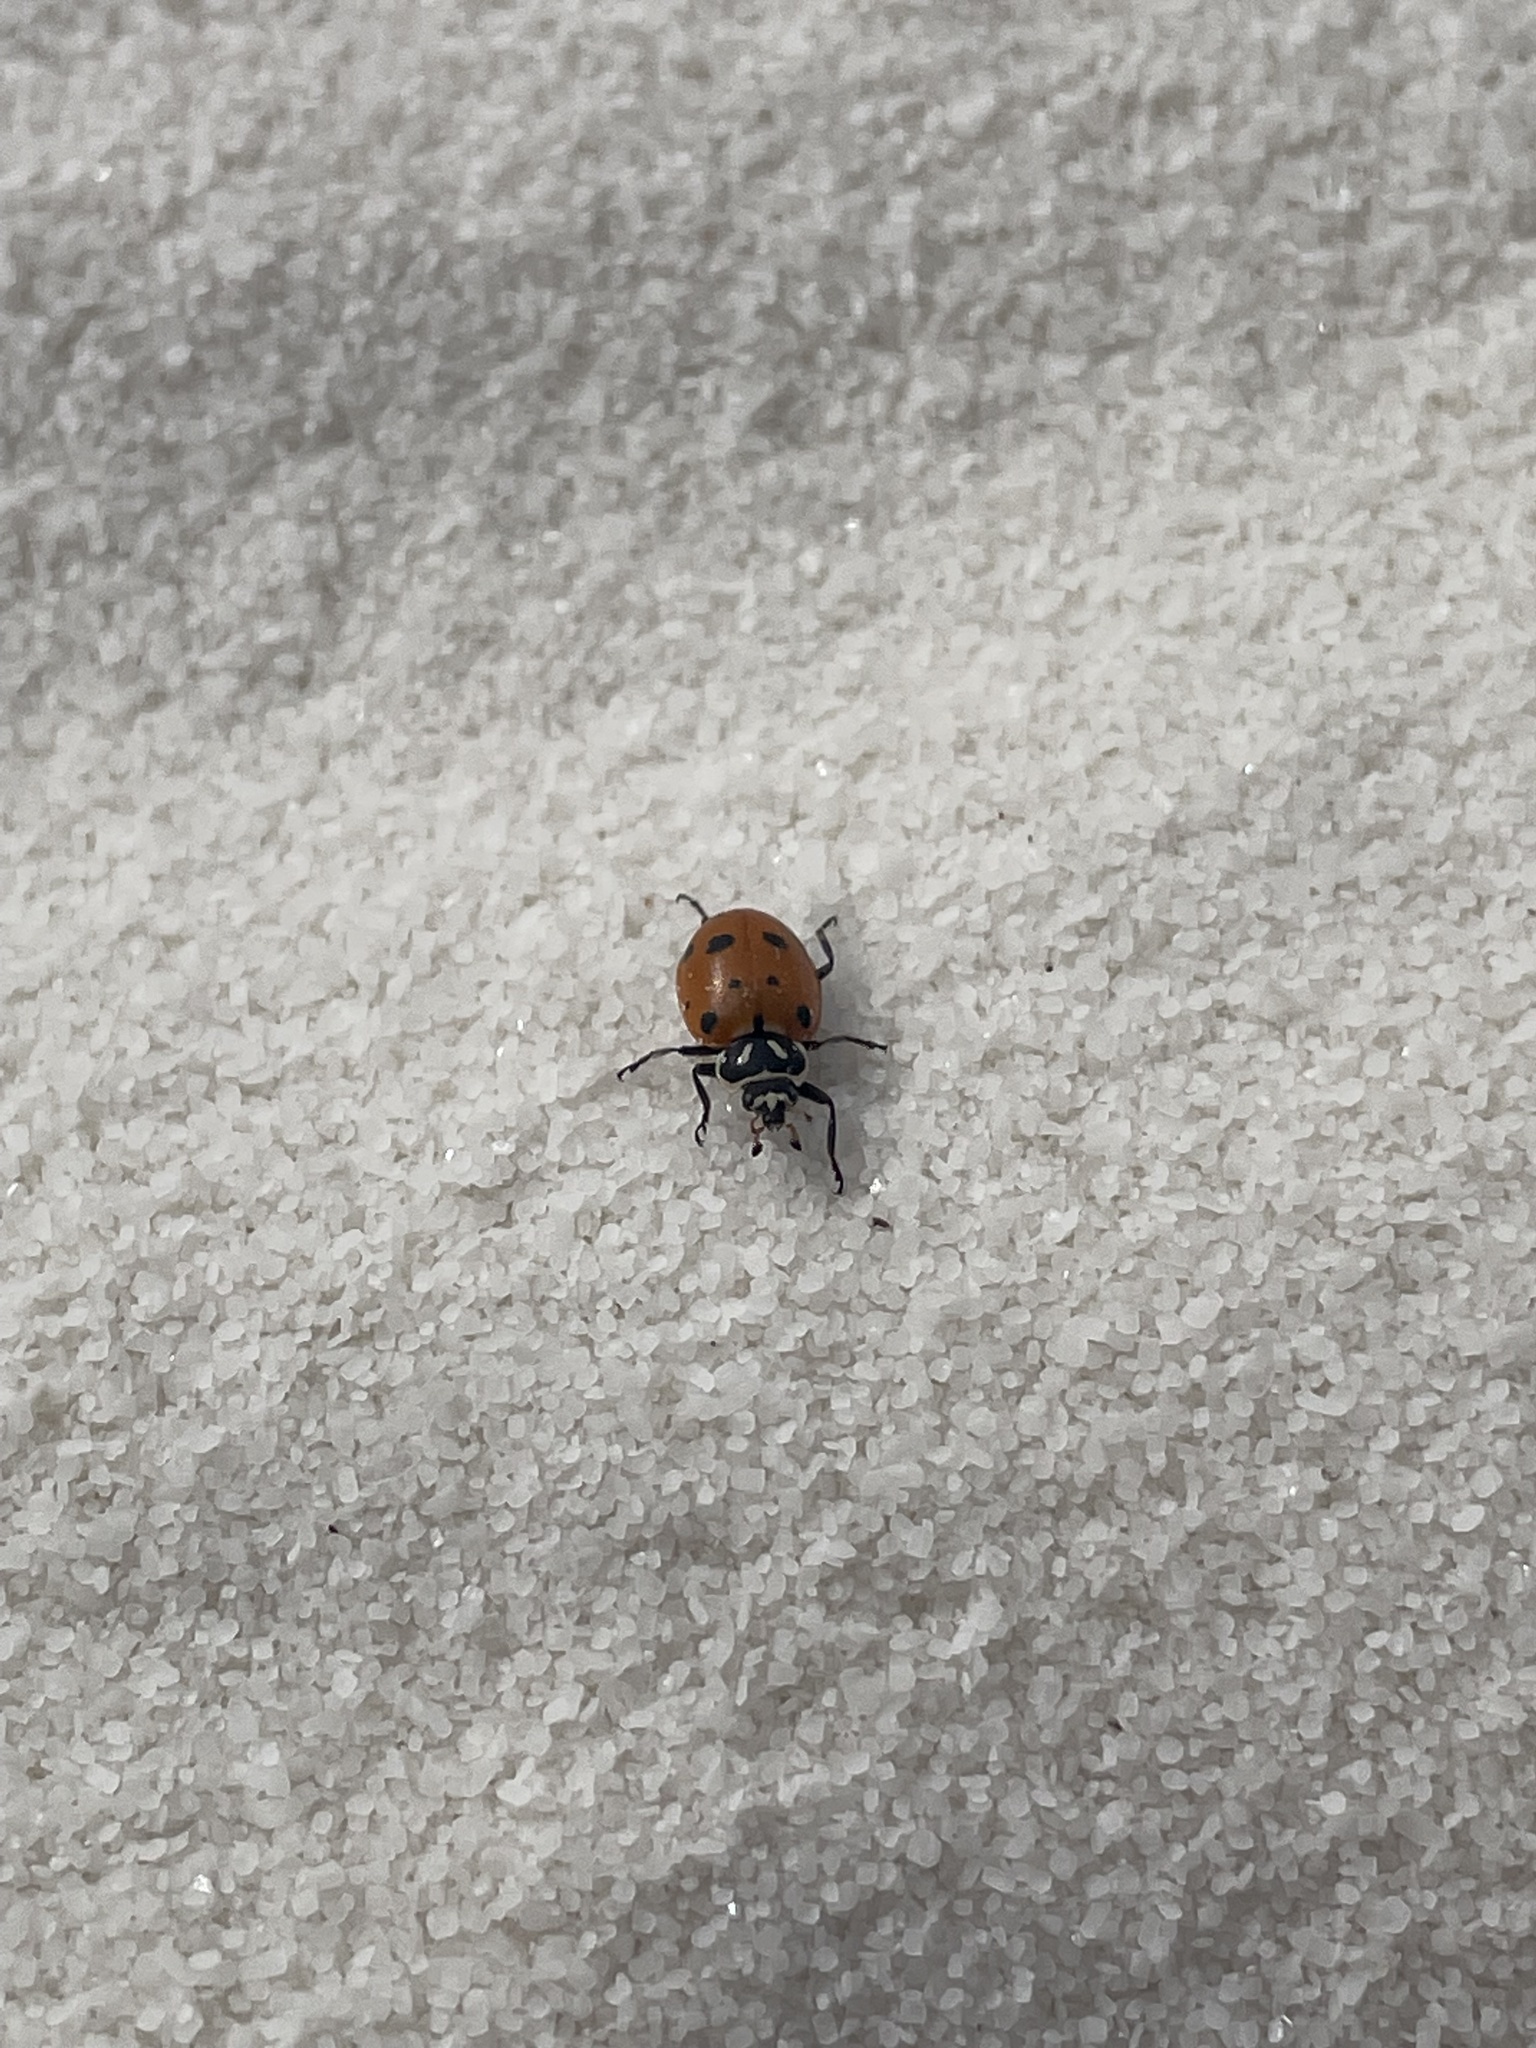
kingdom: Animalia
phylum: Arthropoda
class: Insecta
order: Coleoptera
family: Coccinellidae
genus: Hippodamia
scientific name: Hippodamia convergens
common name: Convergent lady beetle
